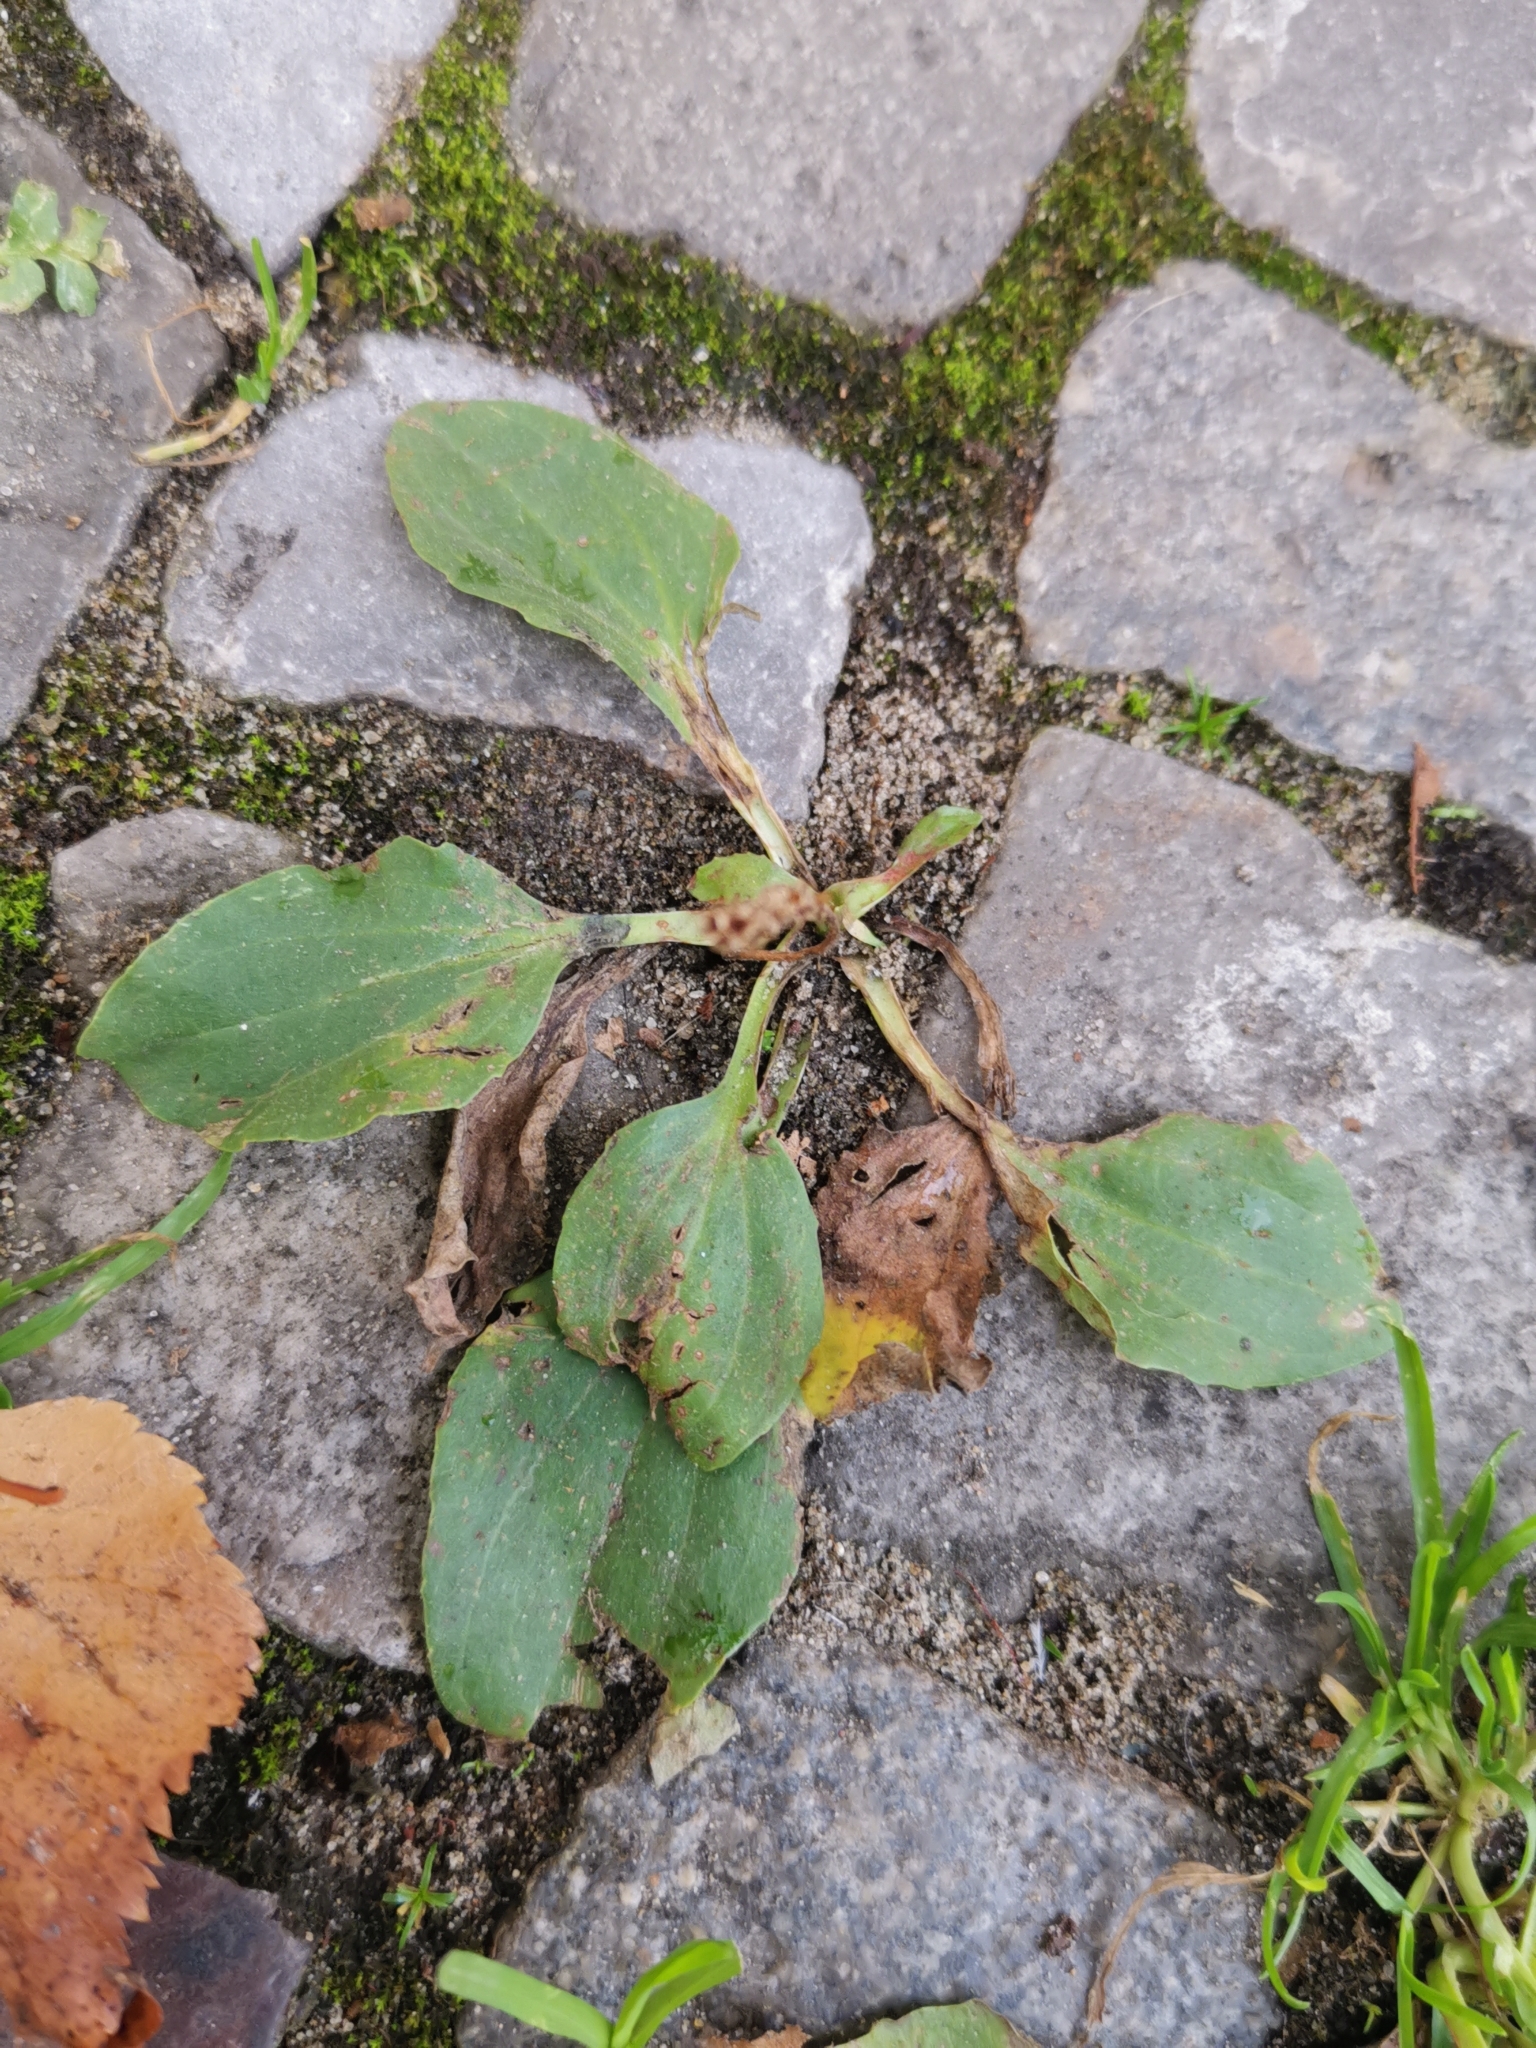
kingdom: Plantae
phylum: Tracheophyta
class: Magnoliopsida
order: Lamiales
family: Plantaginaceae
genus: Plantago
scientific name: Plantago major
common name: Common plantain
